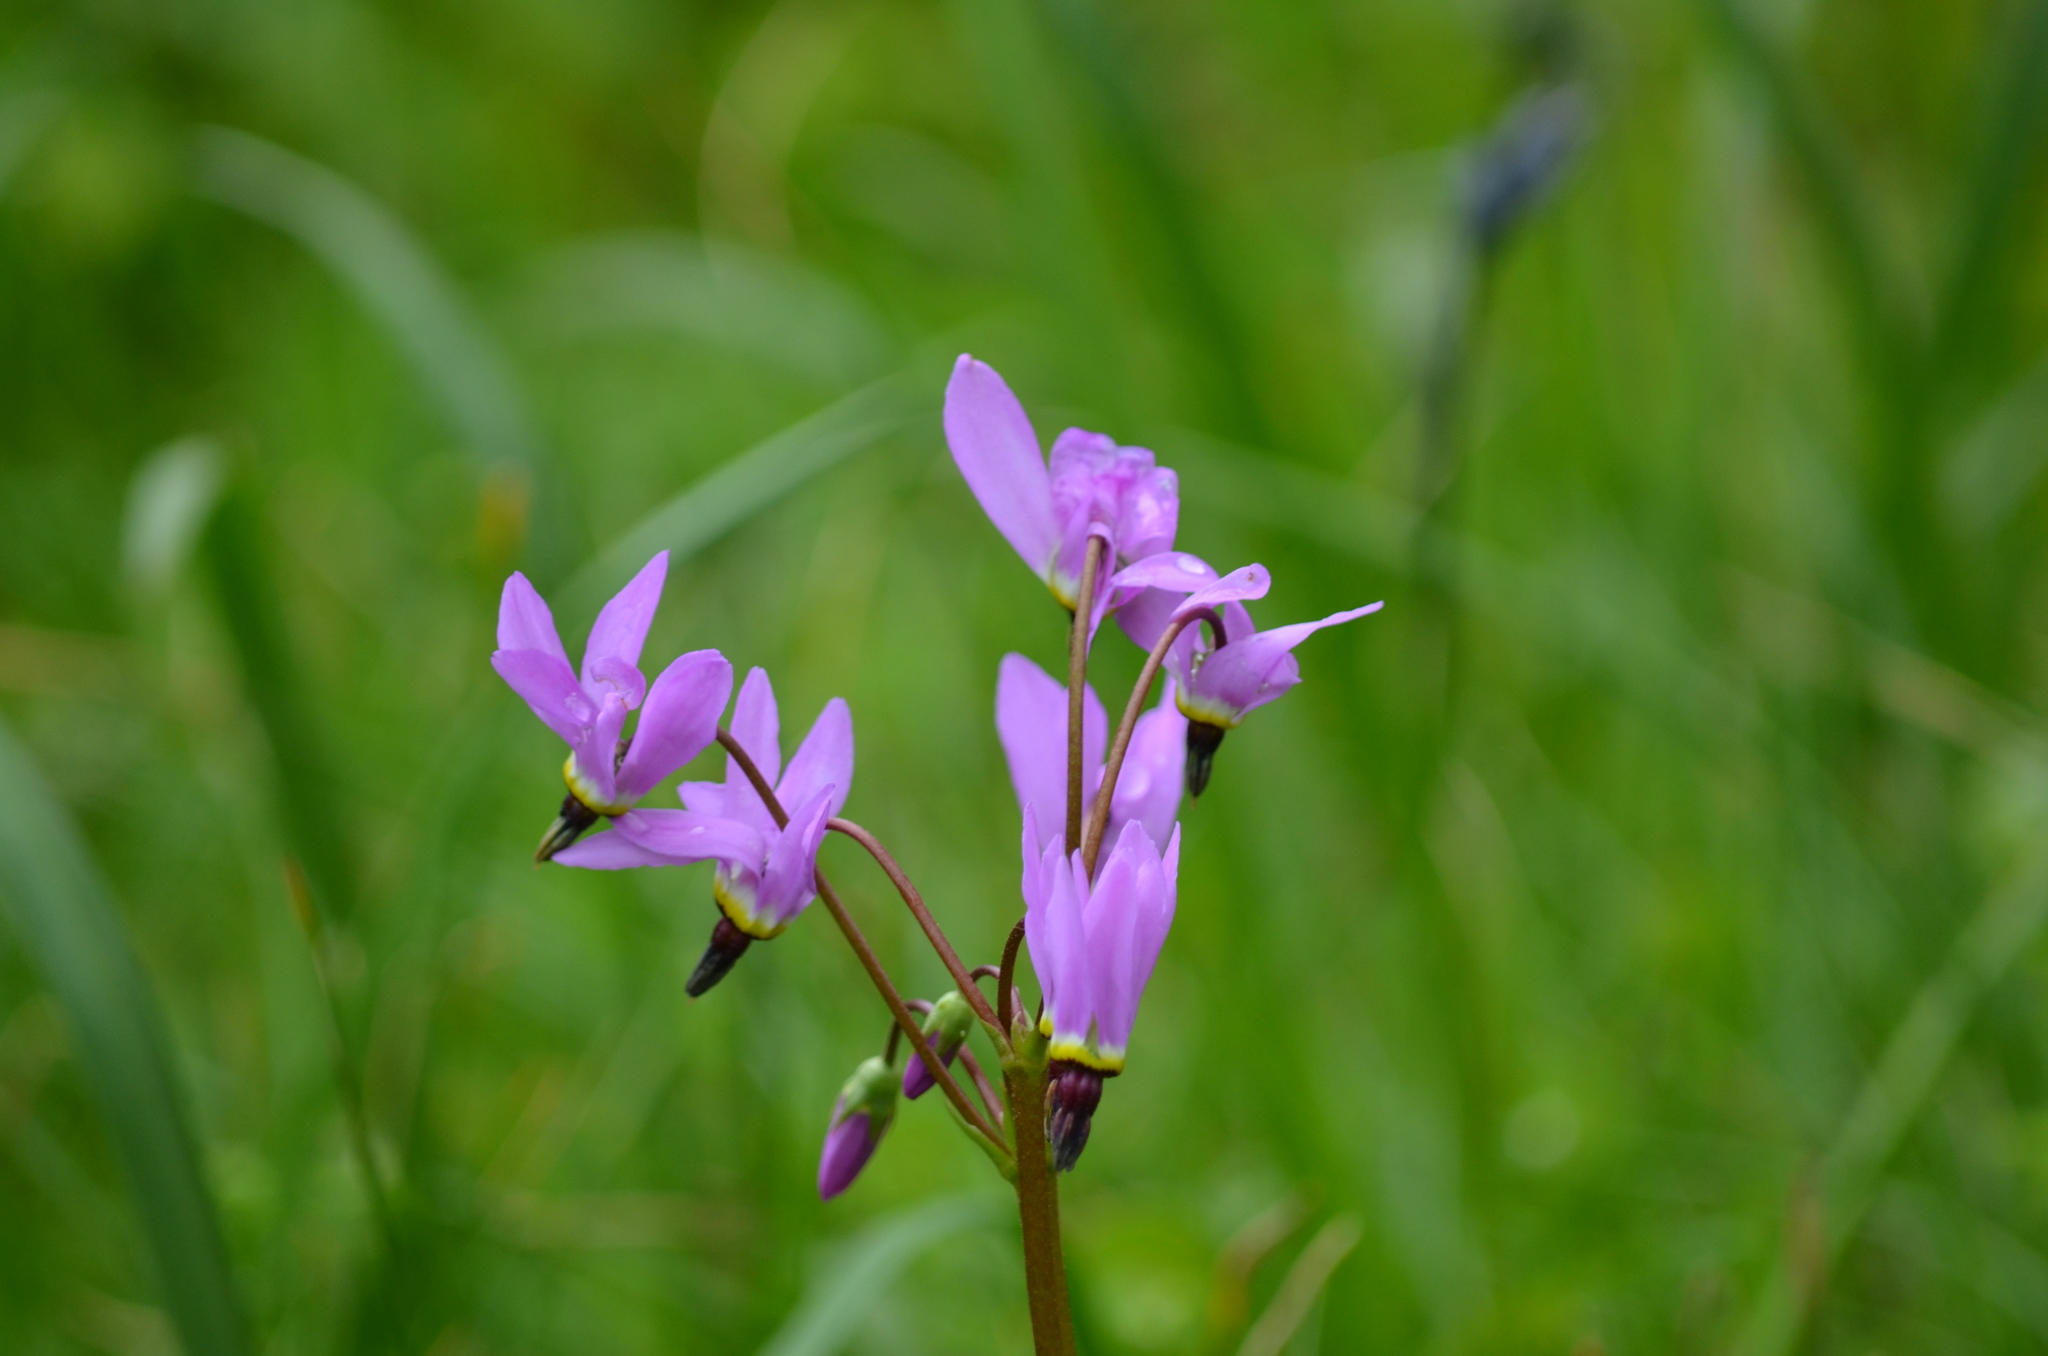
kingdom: Plantae
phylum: Tracheophyta
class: Magnoliopsida
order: Ericales
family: Primulaceae
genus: Dodecatheon
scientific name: Dodecatheon pulchellum
